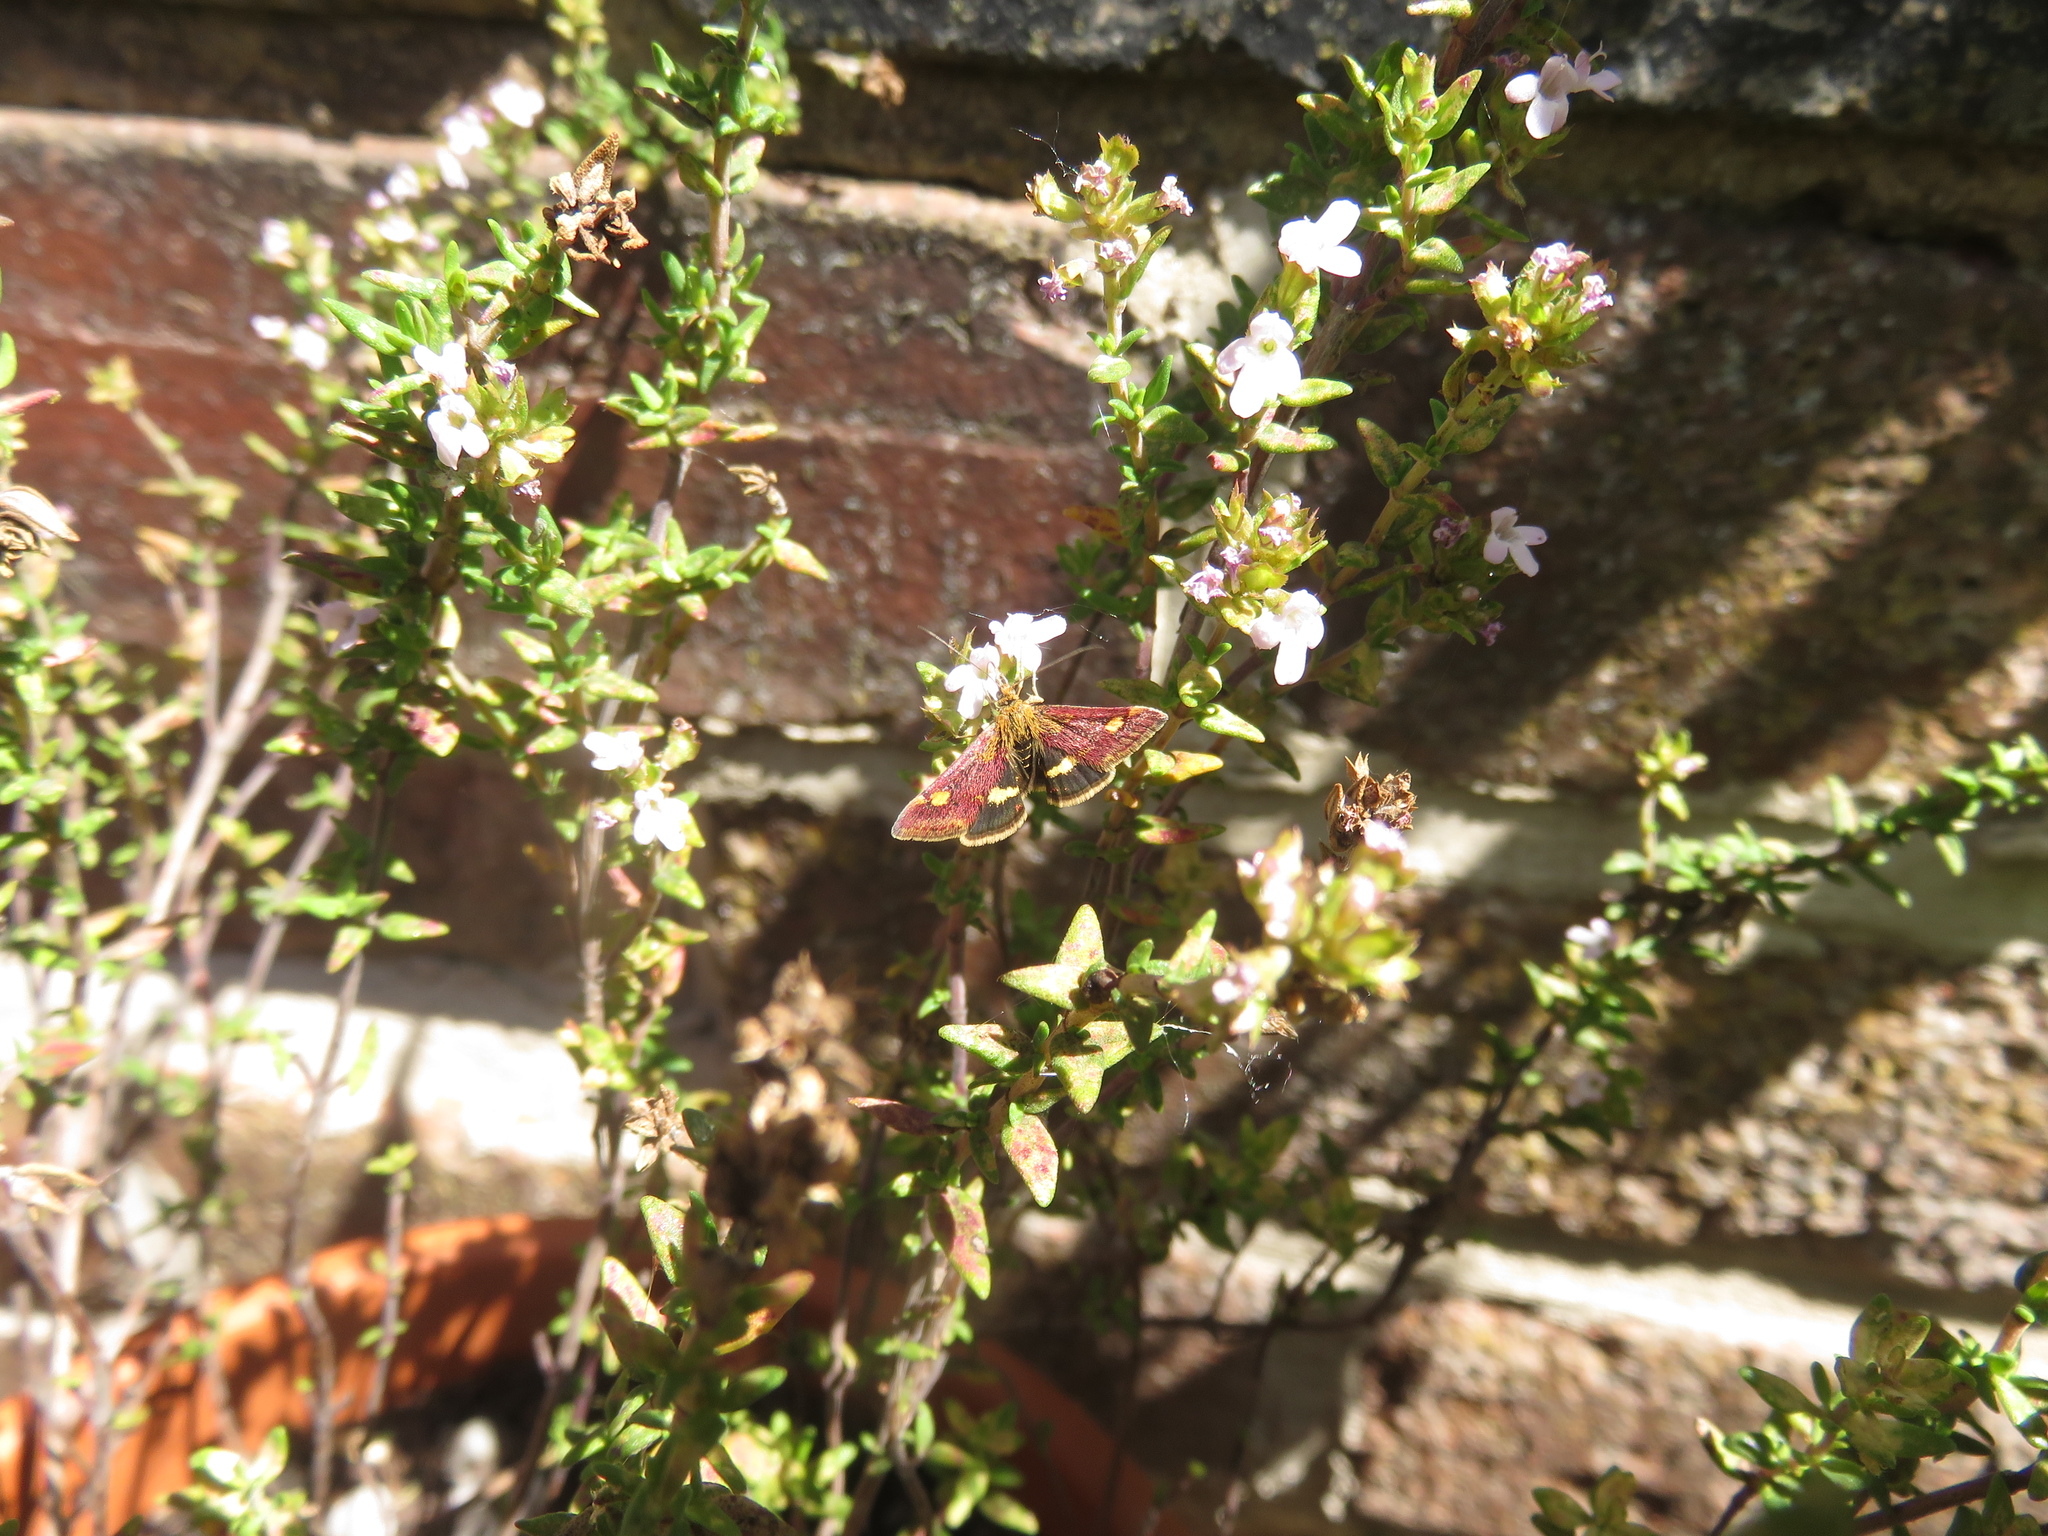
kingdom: Animalia
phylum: Arthropoda
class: Insecta
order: Lepidoptera
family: Crambidae
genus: Pyrausta
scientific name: Pyrausta aurata
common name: Small purple & gold
